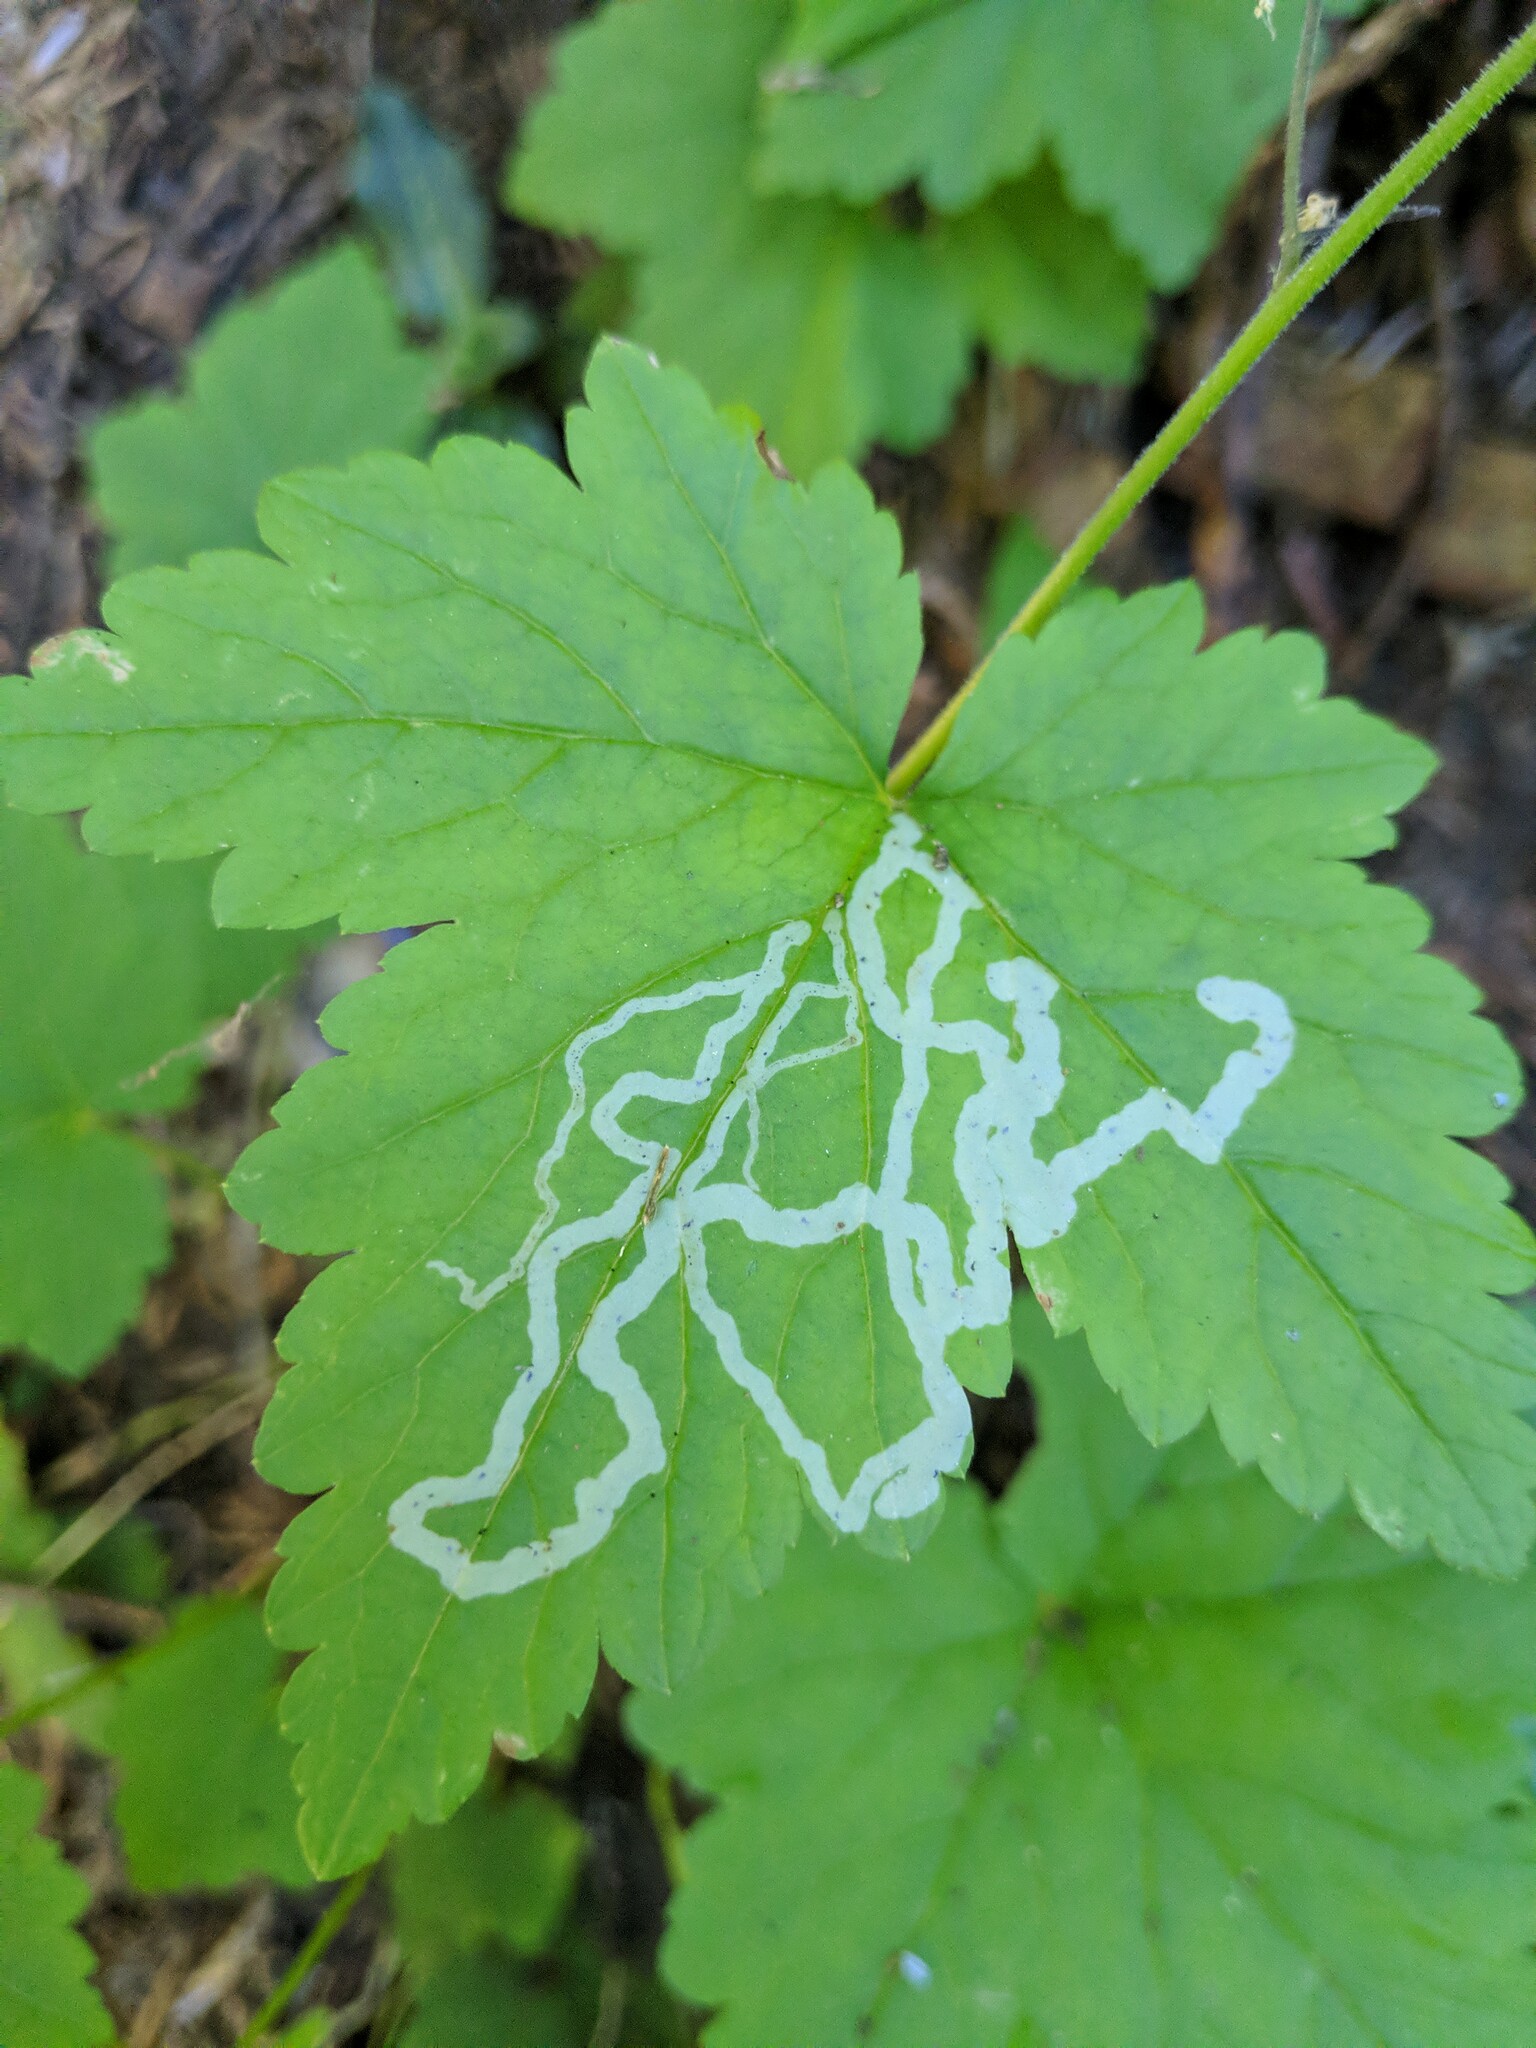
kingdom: Animalia
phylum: Arthropoda
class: Insecta
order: Diptera
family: Agromyzidae
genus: Phytomyza
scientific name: Phytomyza tiarellae
